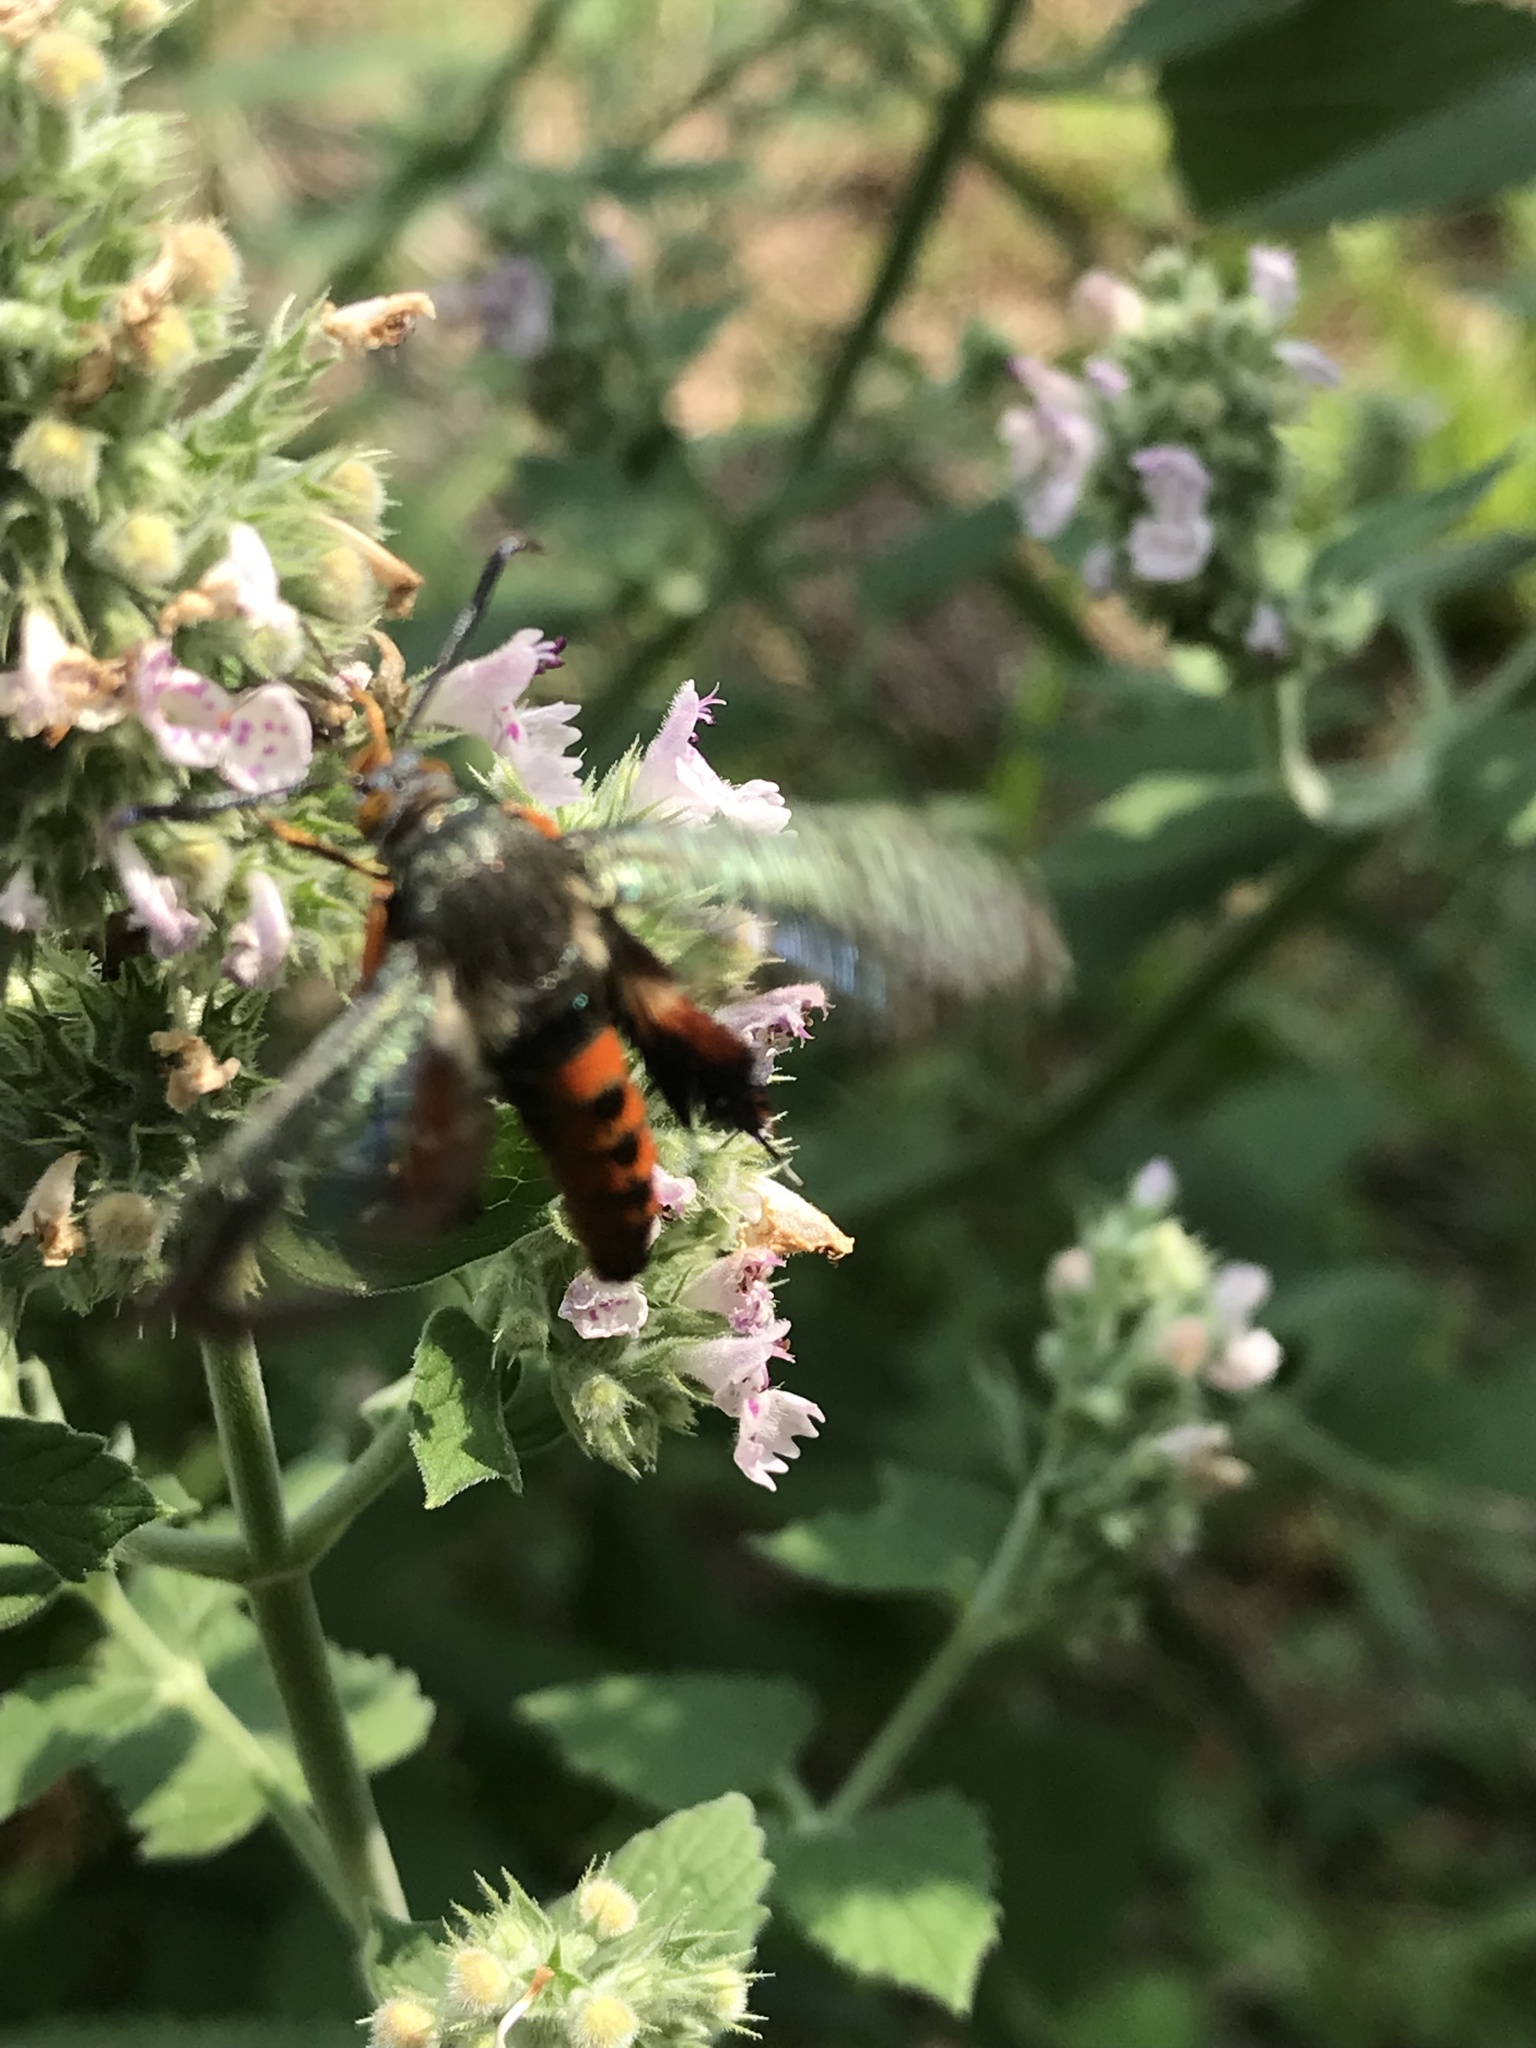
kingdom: Animalia
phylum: Arthropoda
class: Insecta
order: Lepidoptera
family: Sesiidae
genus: Eichlinia
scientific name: Eichlinia cucurbitae
